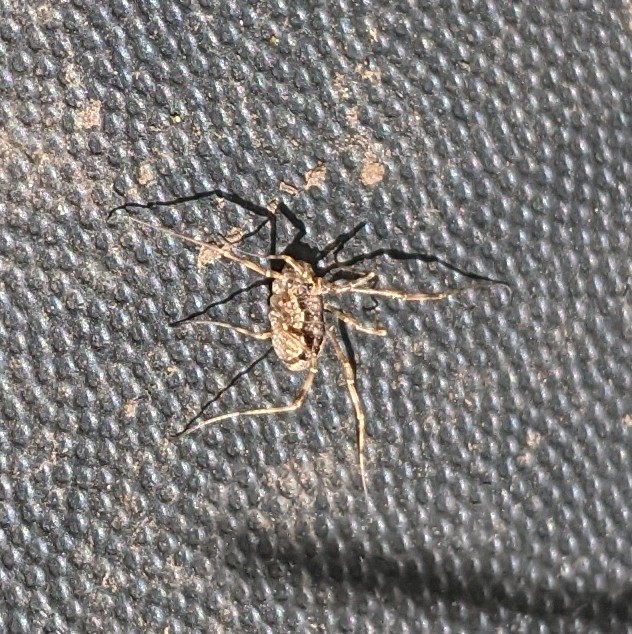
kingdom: Animalia
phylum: Arthropoda
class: Arachnida
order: Opiliones
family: Phalangiidae
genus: Rilaena
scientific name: Rilaena triangularis
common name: Spring harvestman
